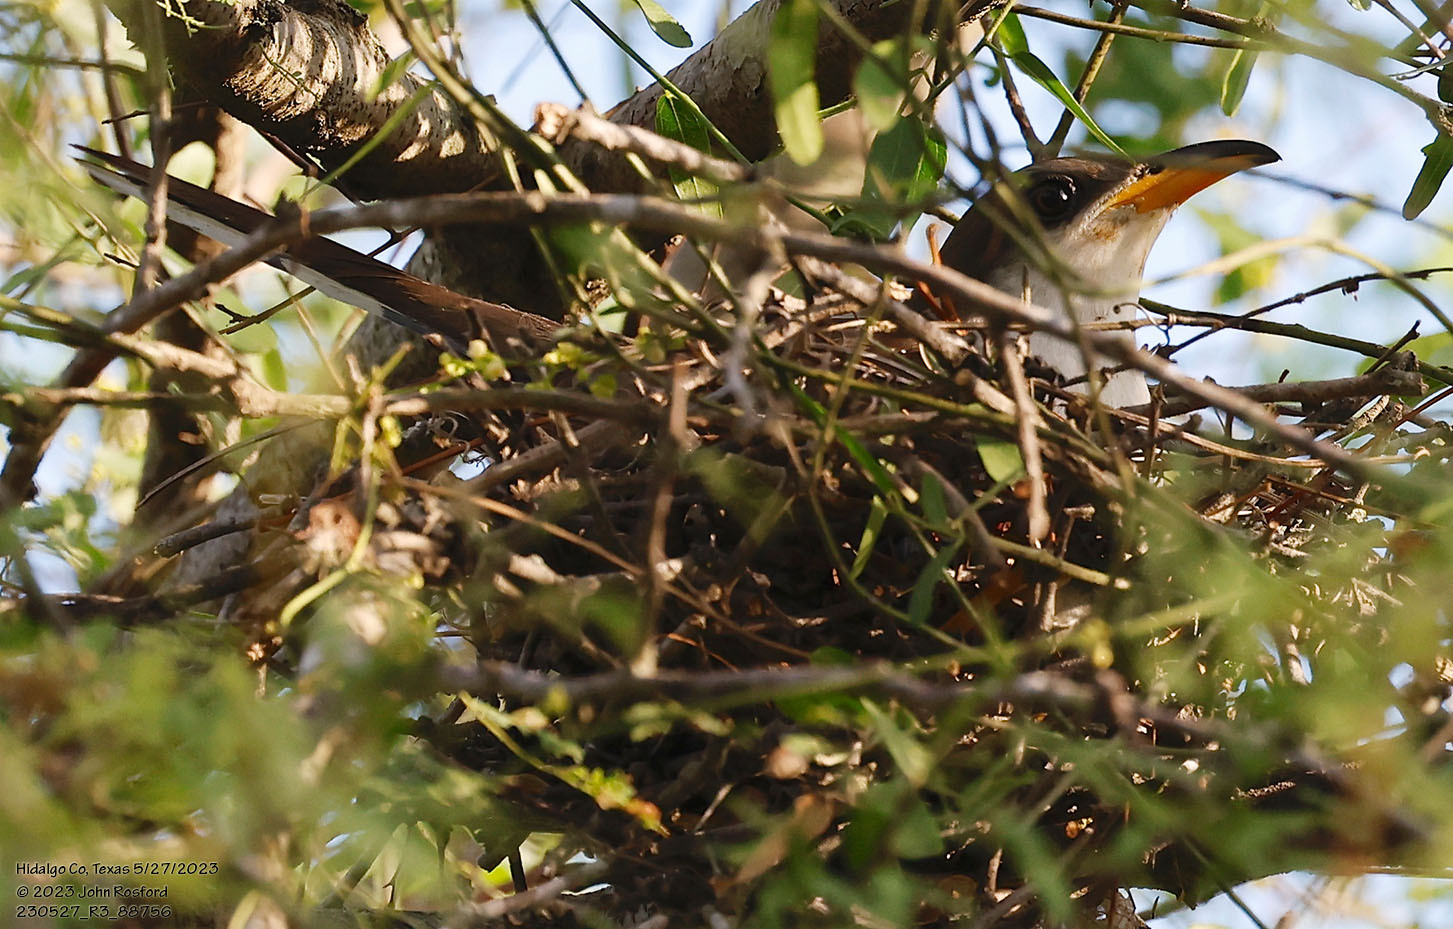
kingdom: Animalia
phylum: Chordata
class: Aves
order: Cuculiformes
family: Cuculidae
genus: Coccyzus
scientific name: Coccyzus americanus
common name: Yellow-billed cuckoo
